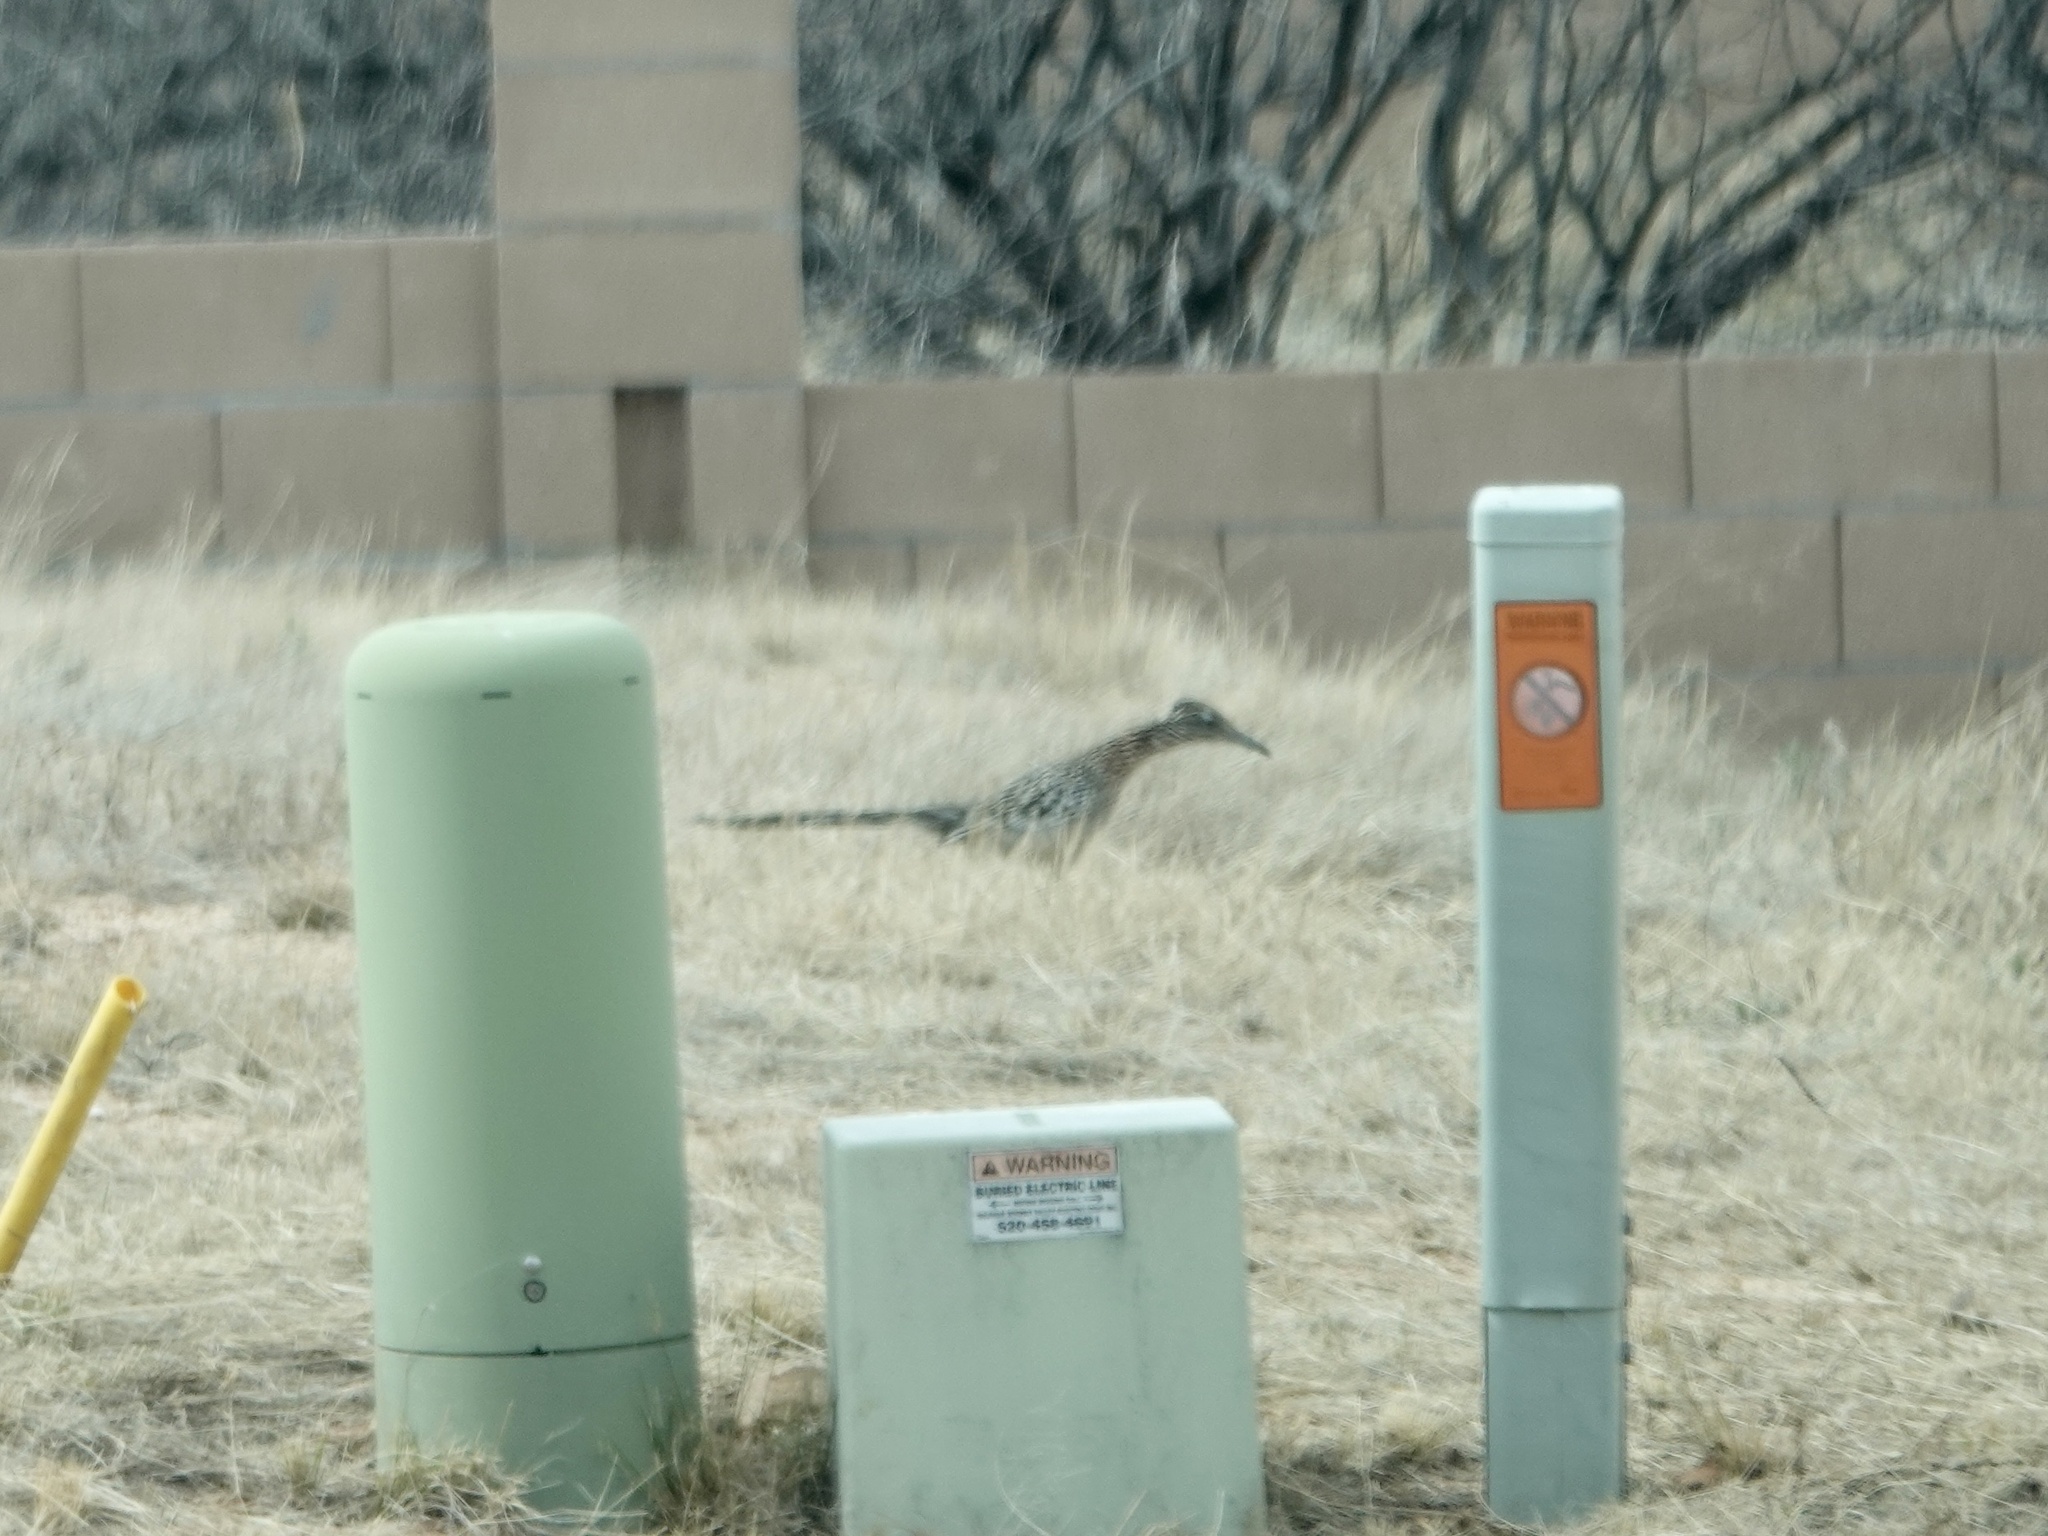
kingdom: Animalia
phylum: Chordata
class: Aves
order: Cuculiformes
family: Cuculidae
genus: Geococcyx
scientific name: Geococcyx californianus
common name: Greater roadrunner
